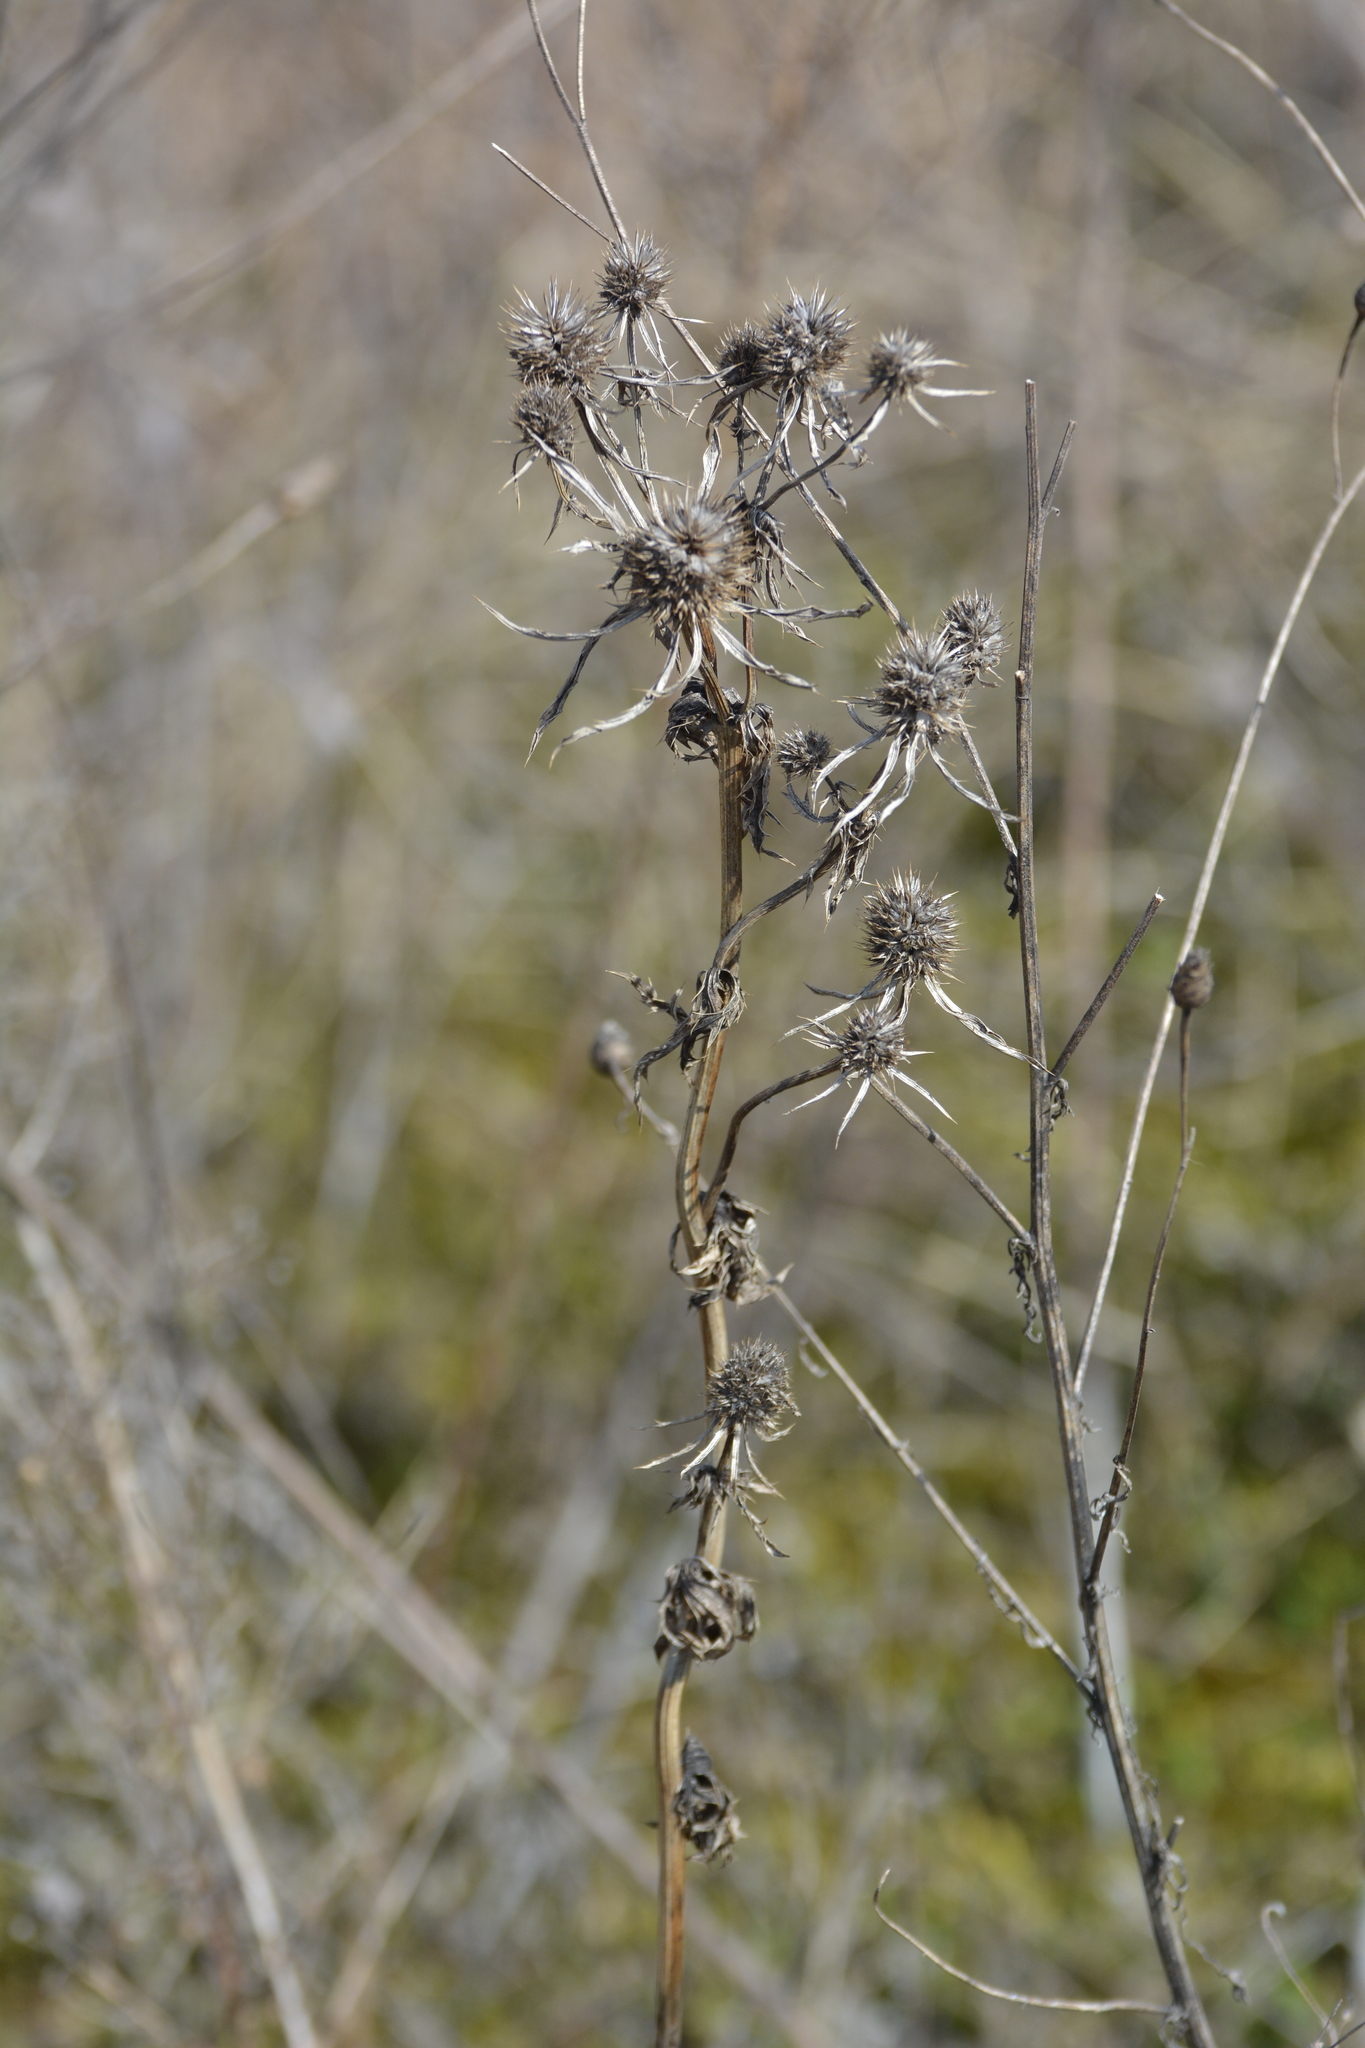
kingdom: Plantae
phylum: Tracheophyta
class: Magnoliopsida
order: Apiales
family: Apiaceae
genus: Eryngium
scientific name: Eryngium planum
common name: Blue eryngo
